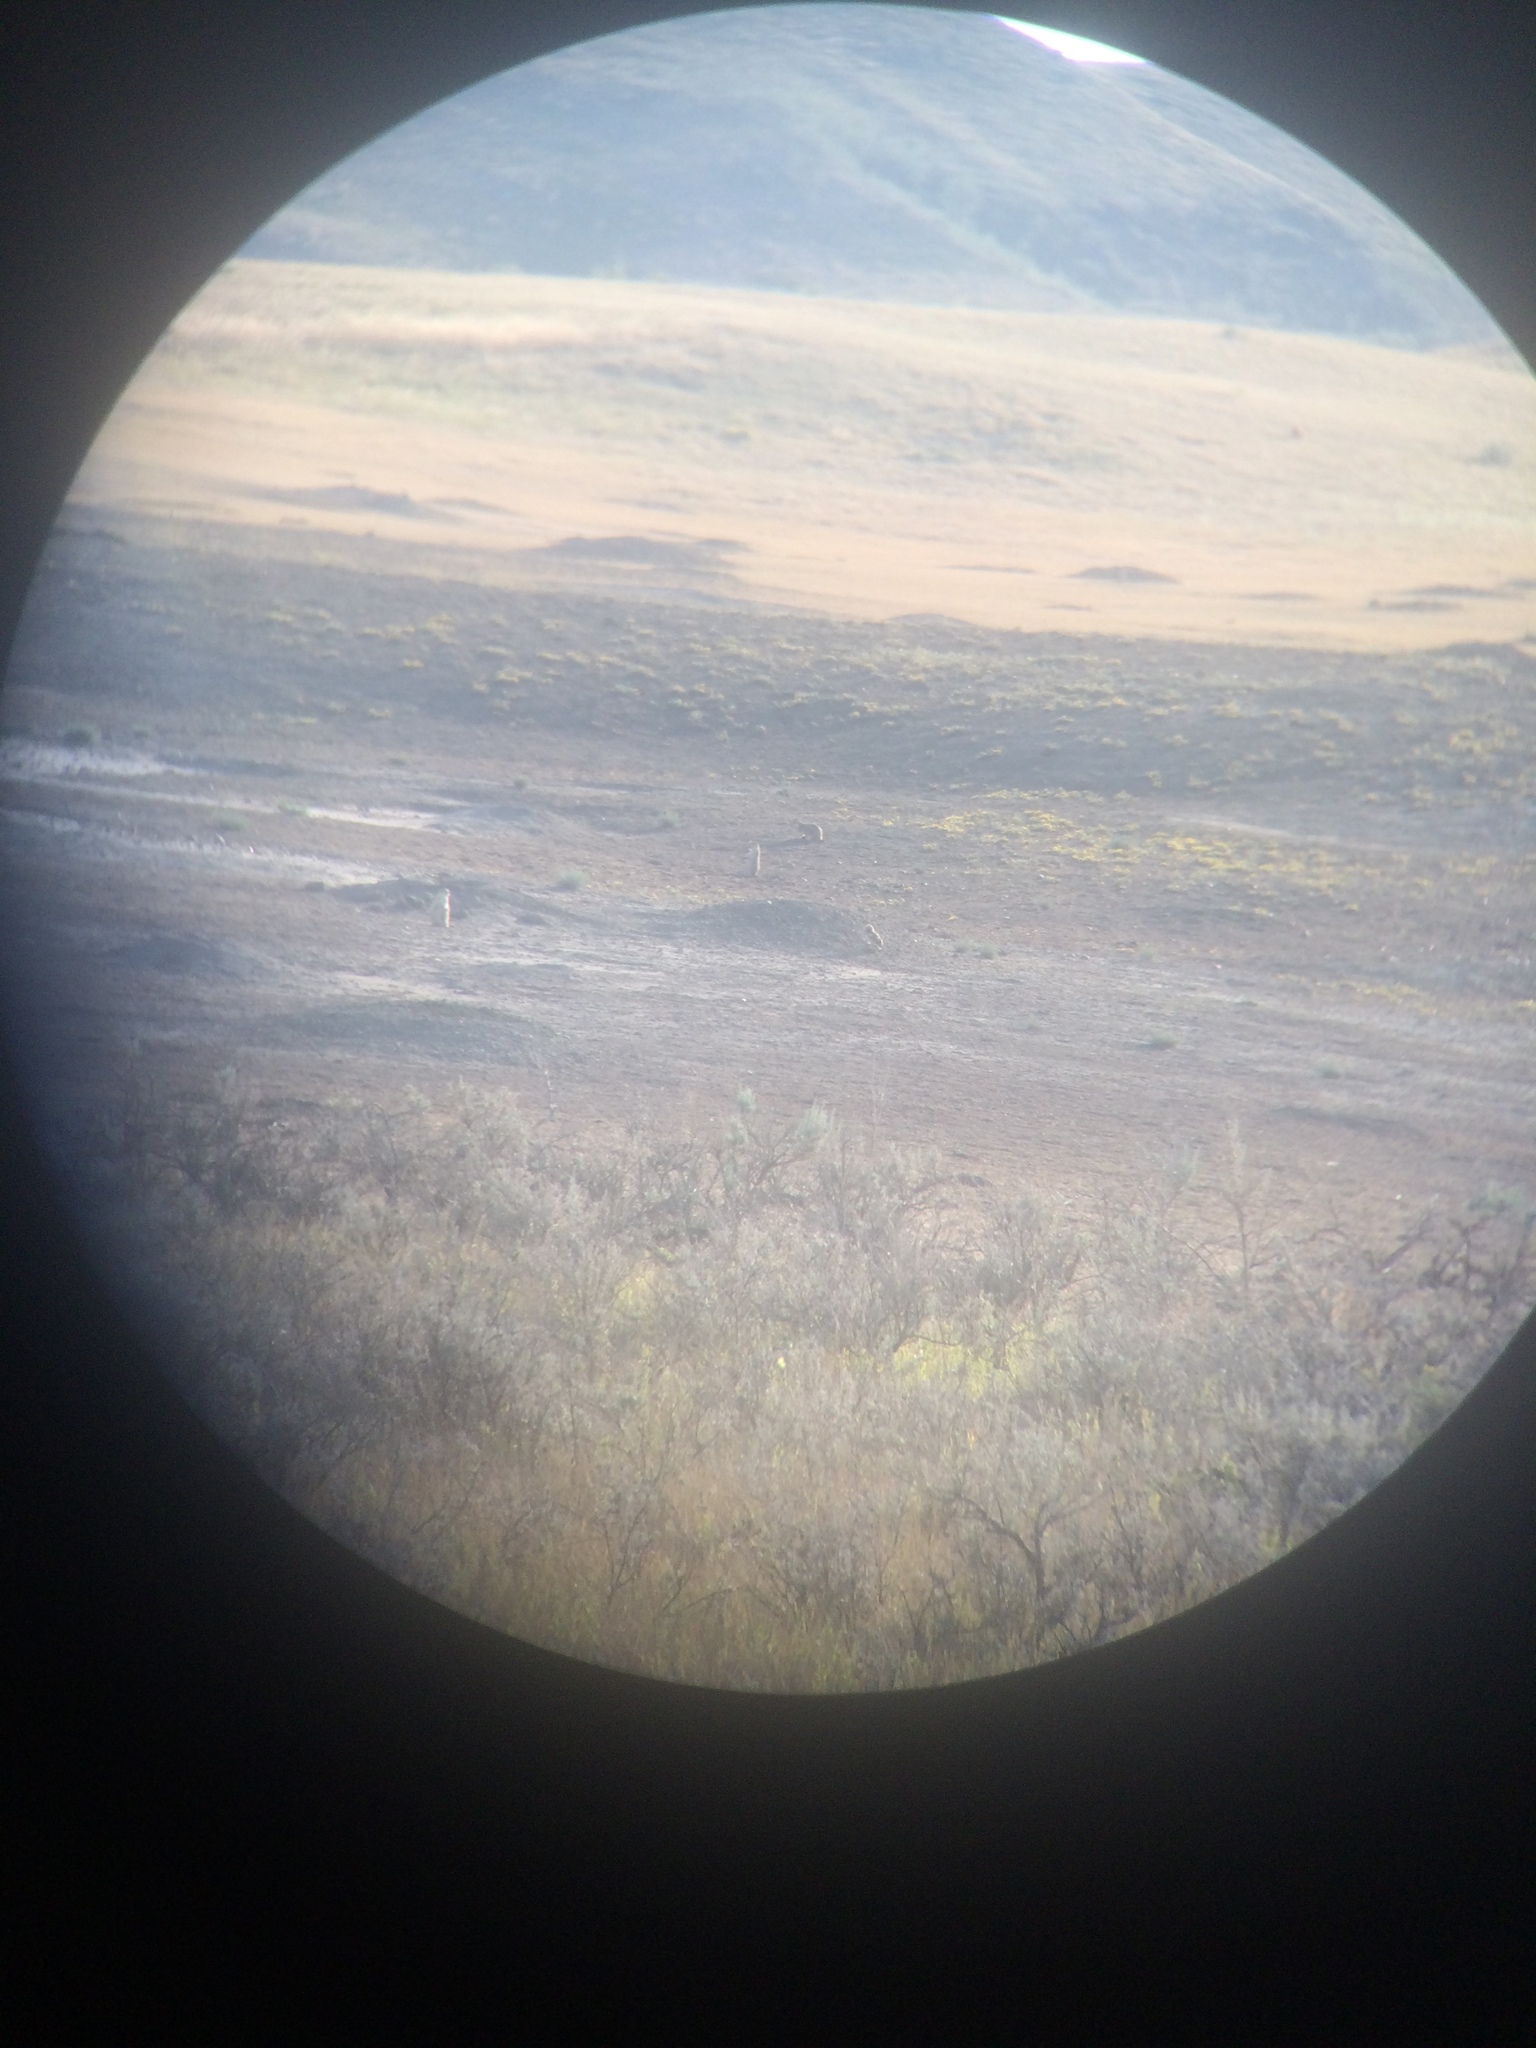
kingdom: Animalia
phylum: Chordata
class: Mammalia
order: Rodentia
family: Sciuridae
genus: Cynomys
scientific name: Cynomys ludovicianus
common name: Black-tailed prairie dog
